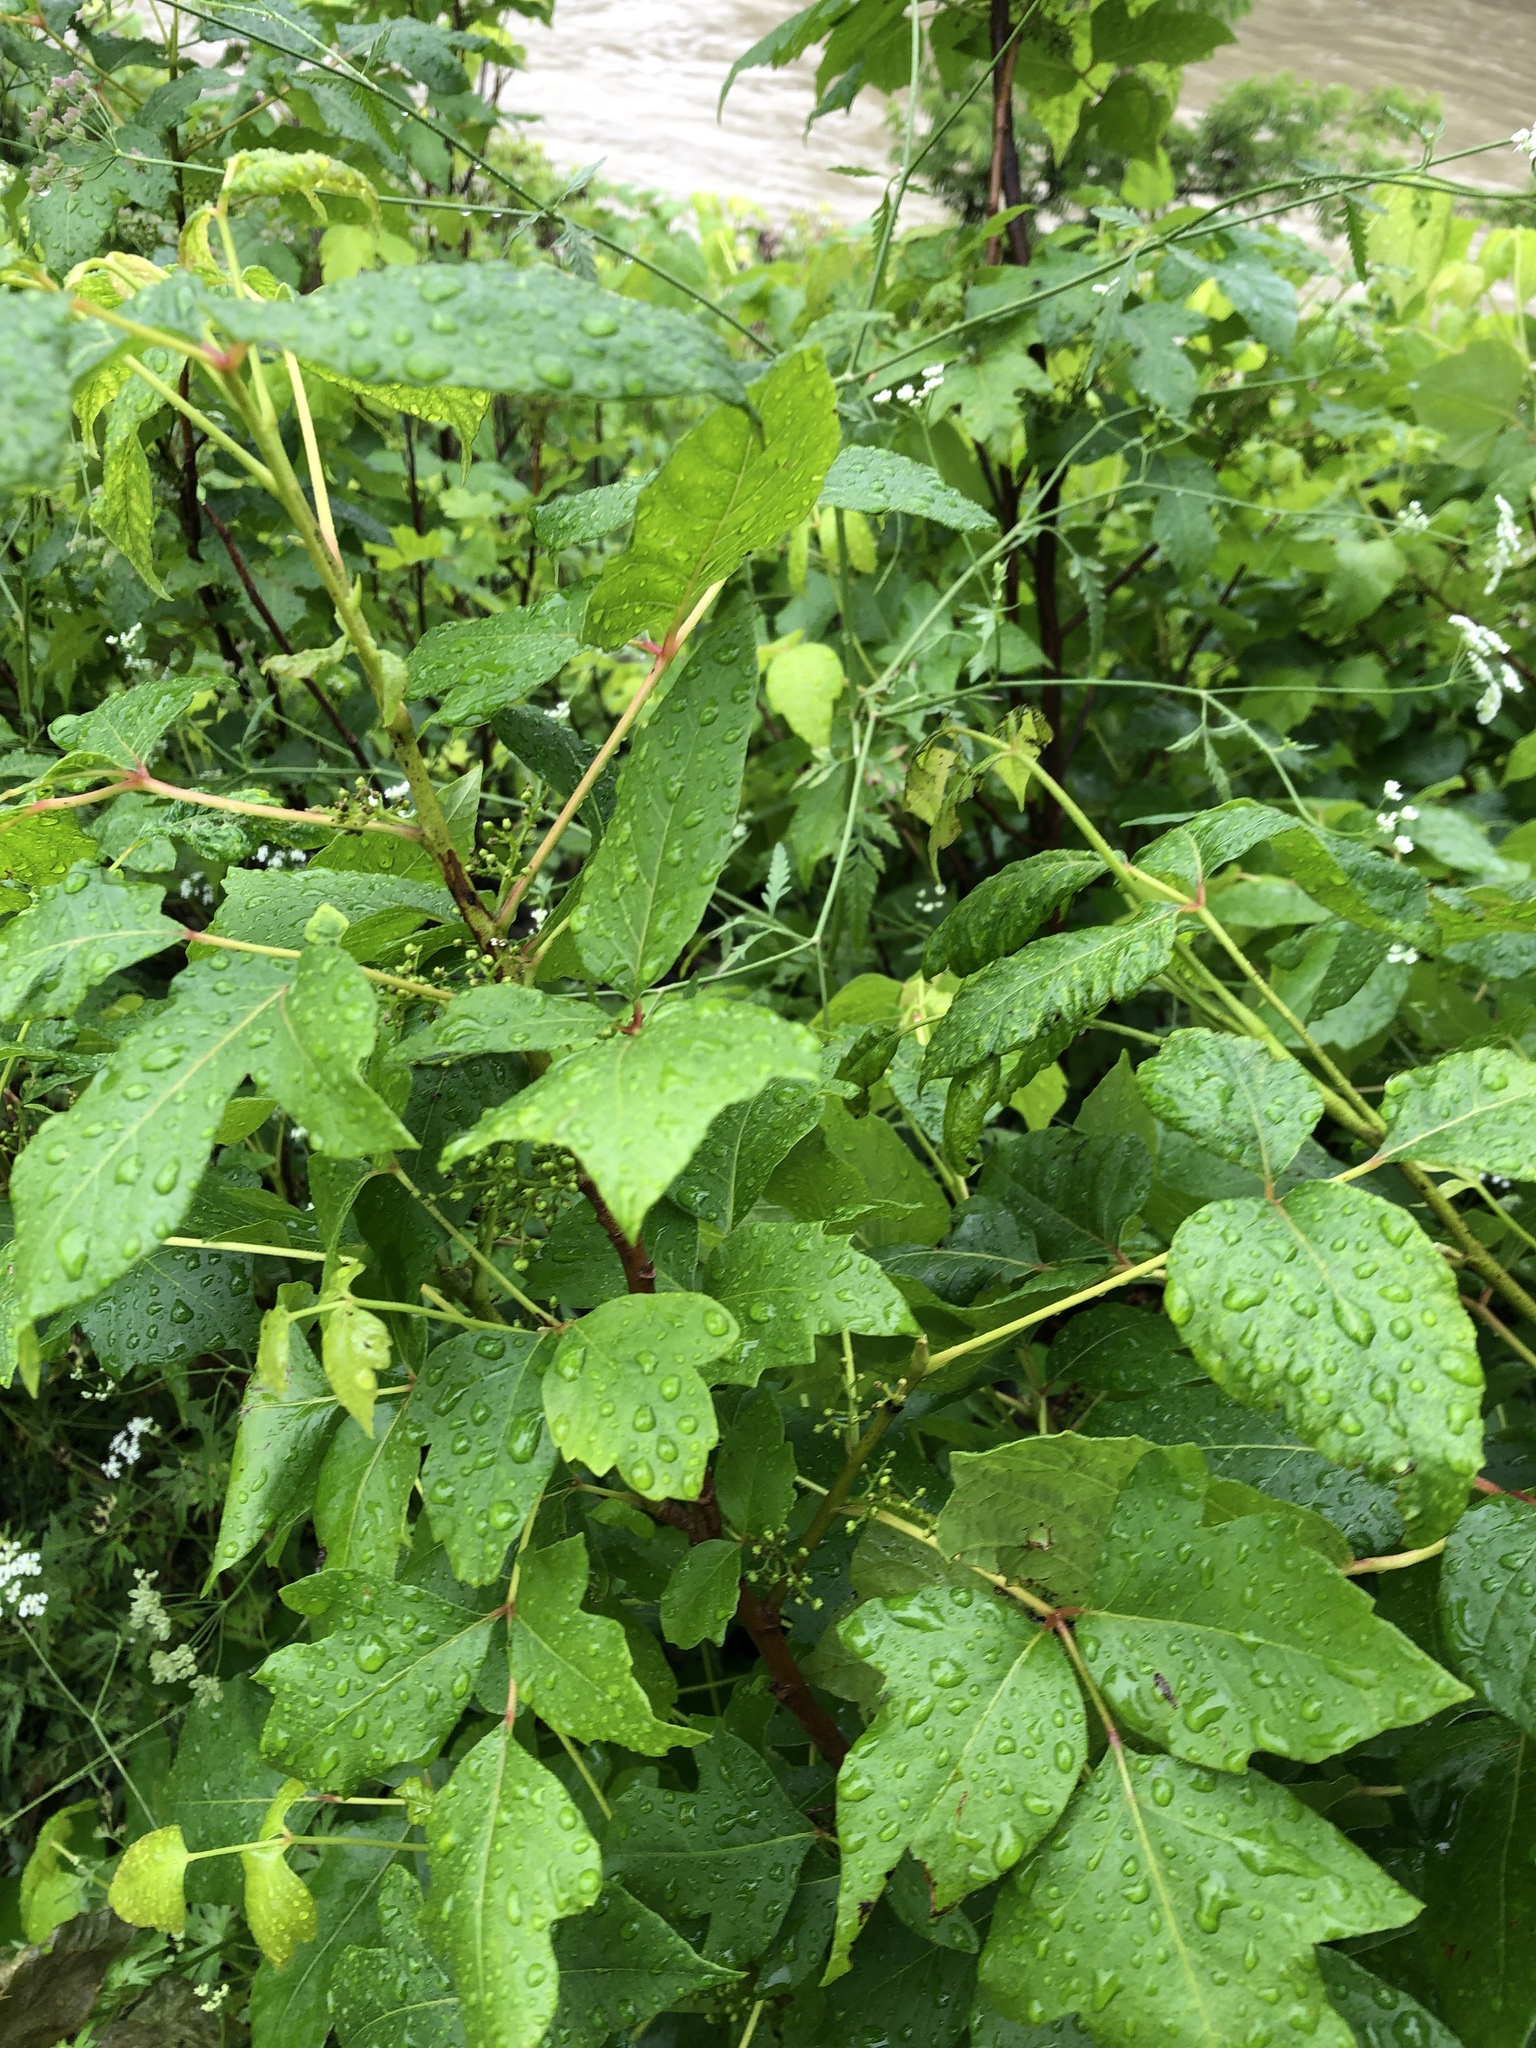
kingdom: Plantae
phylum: Tracheophyta
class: Magnoliopsida
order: Sapindales
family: Anacardiaceae
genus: Toxicodendron
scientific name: Toxicodendron radicans
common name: Poison ivy
